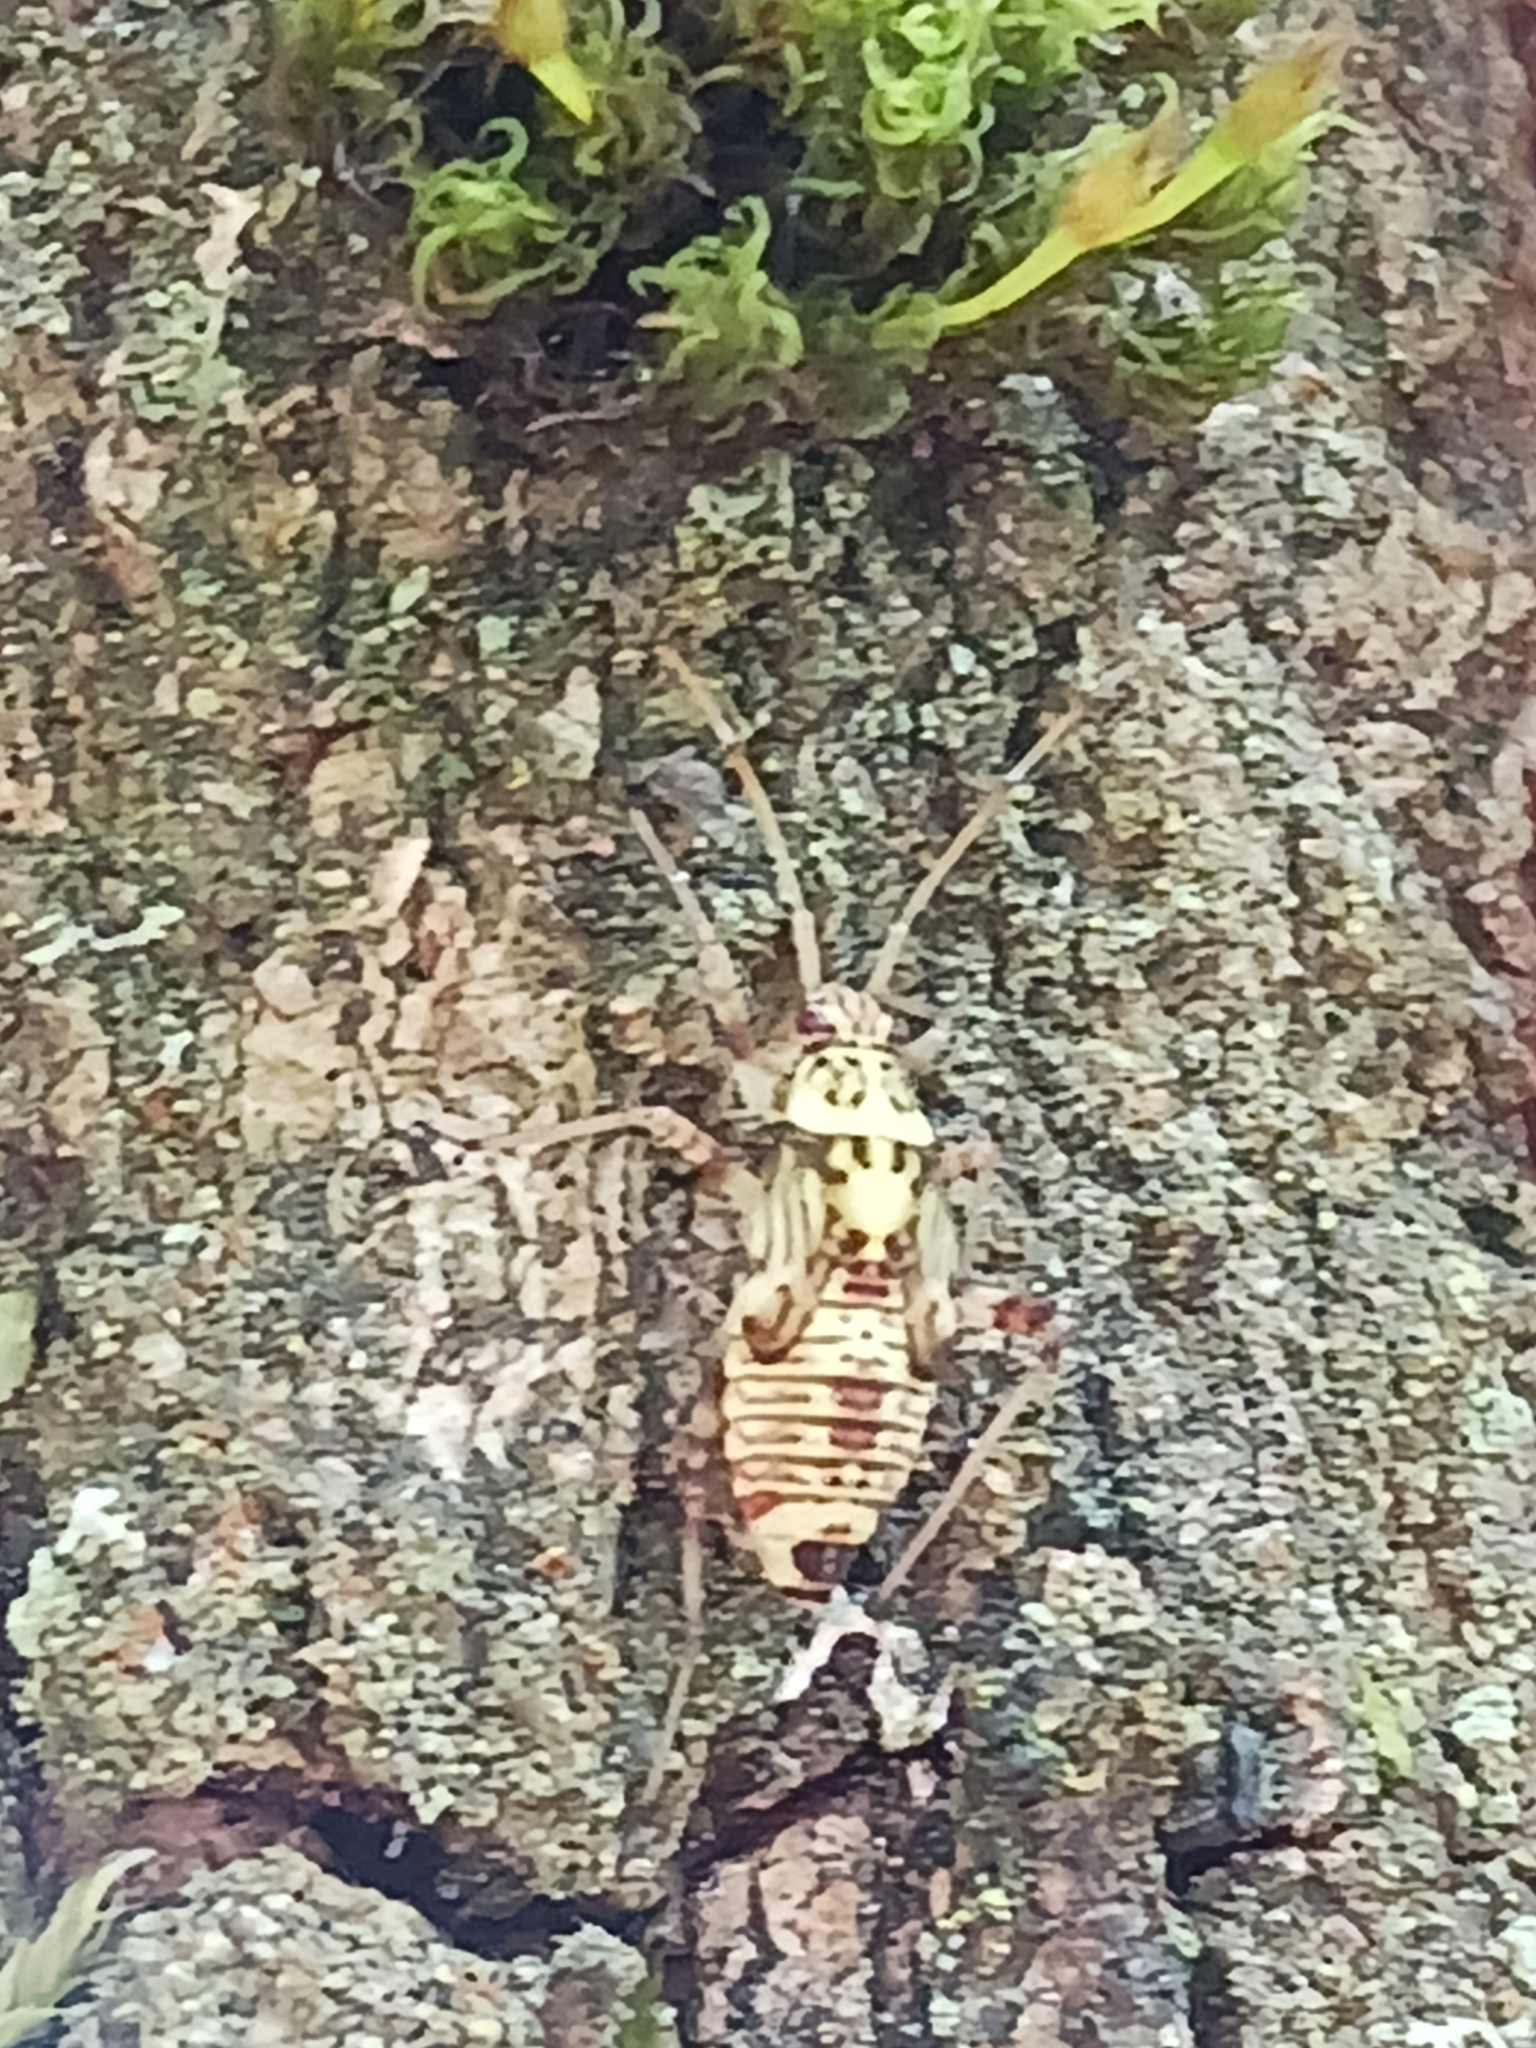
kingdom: Animalia
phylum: Arthropoda
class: Insecta
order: Hemiptera
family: Miridae
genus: Rhabdomiris
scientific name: Rhabdomiris striatellus
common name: Plant bug
